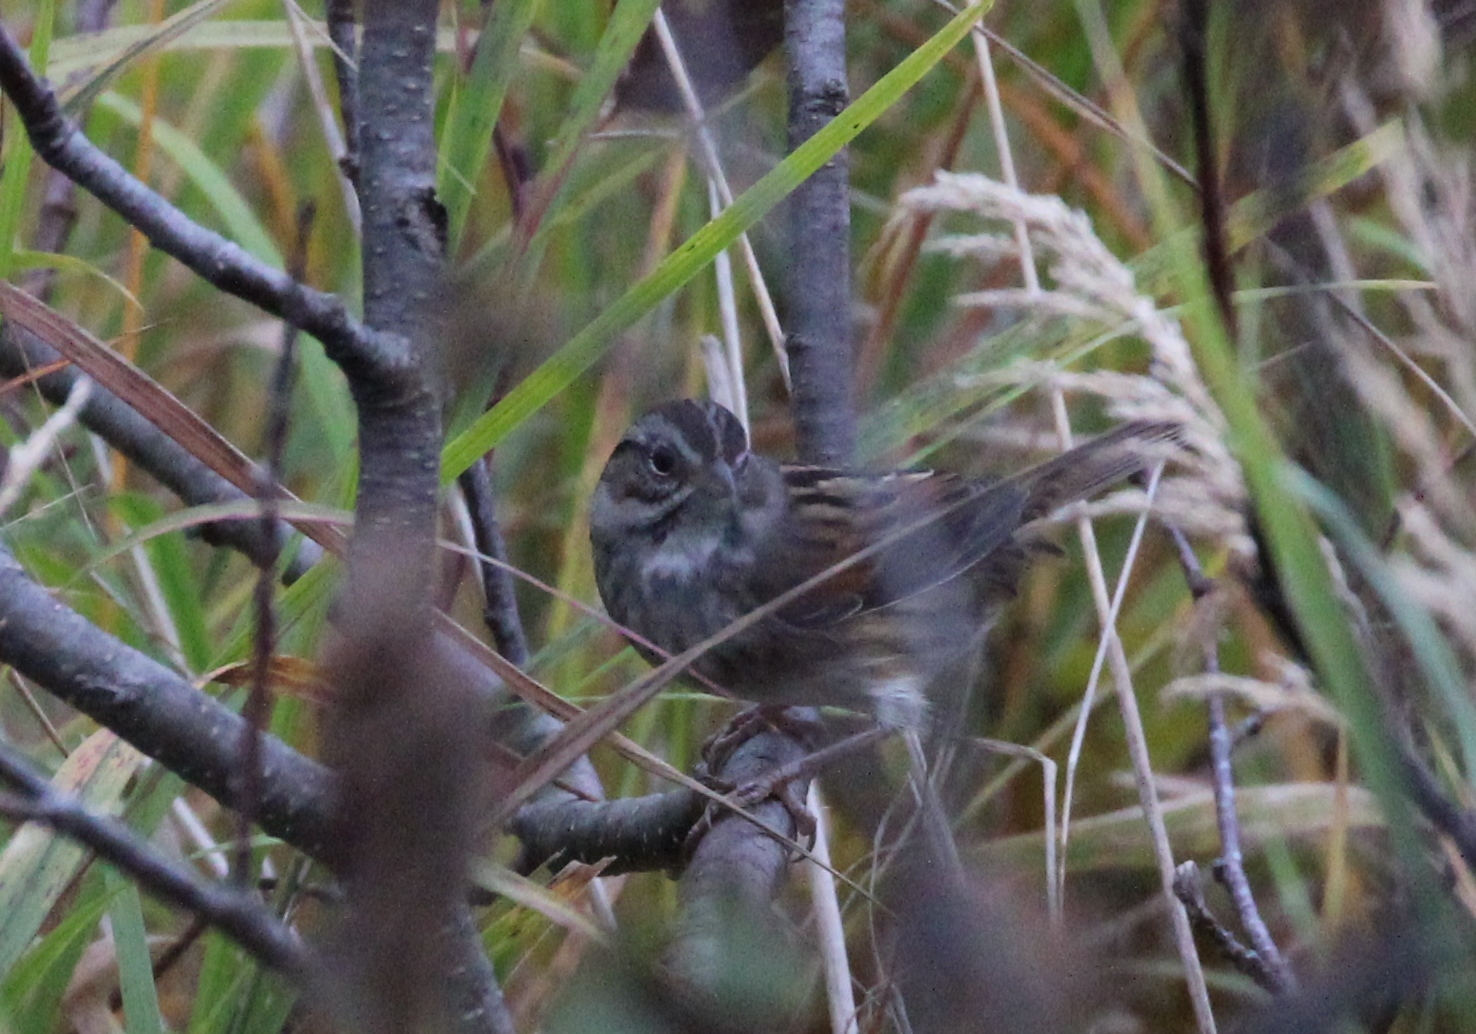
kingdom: Animalia
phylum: Chordata
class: Aves
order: Passeriformes
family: Passerellidae
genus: Melospiza
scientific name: Melospiza georgiana
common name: Swamp sparrow
